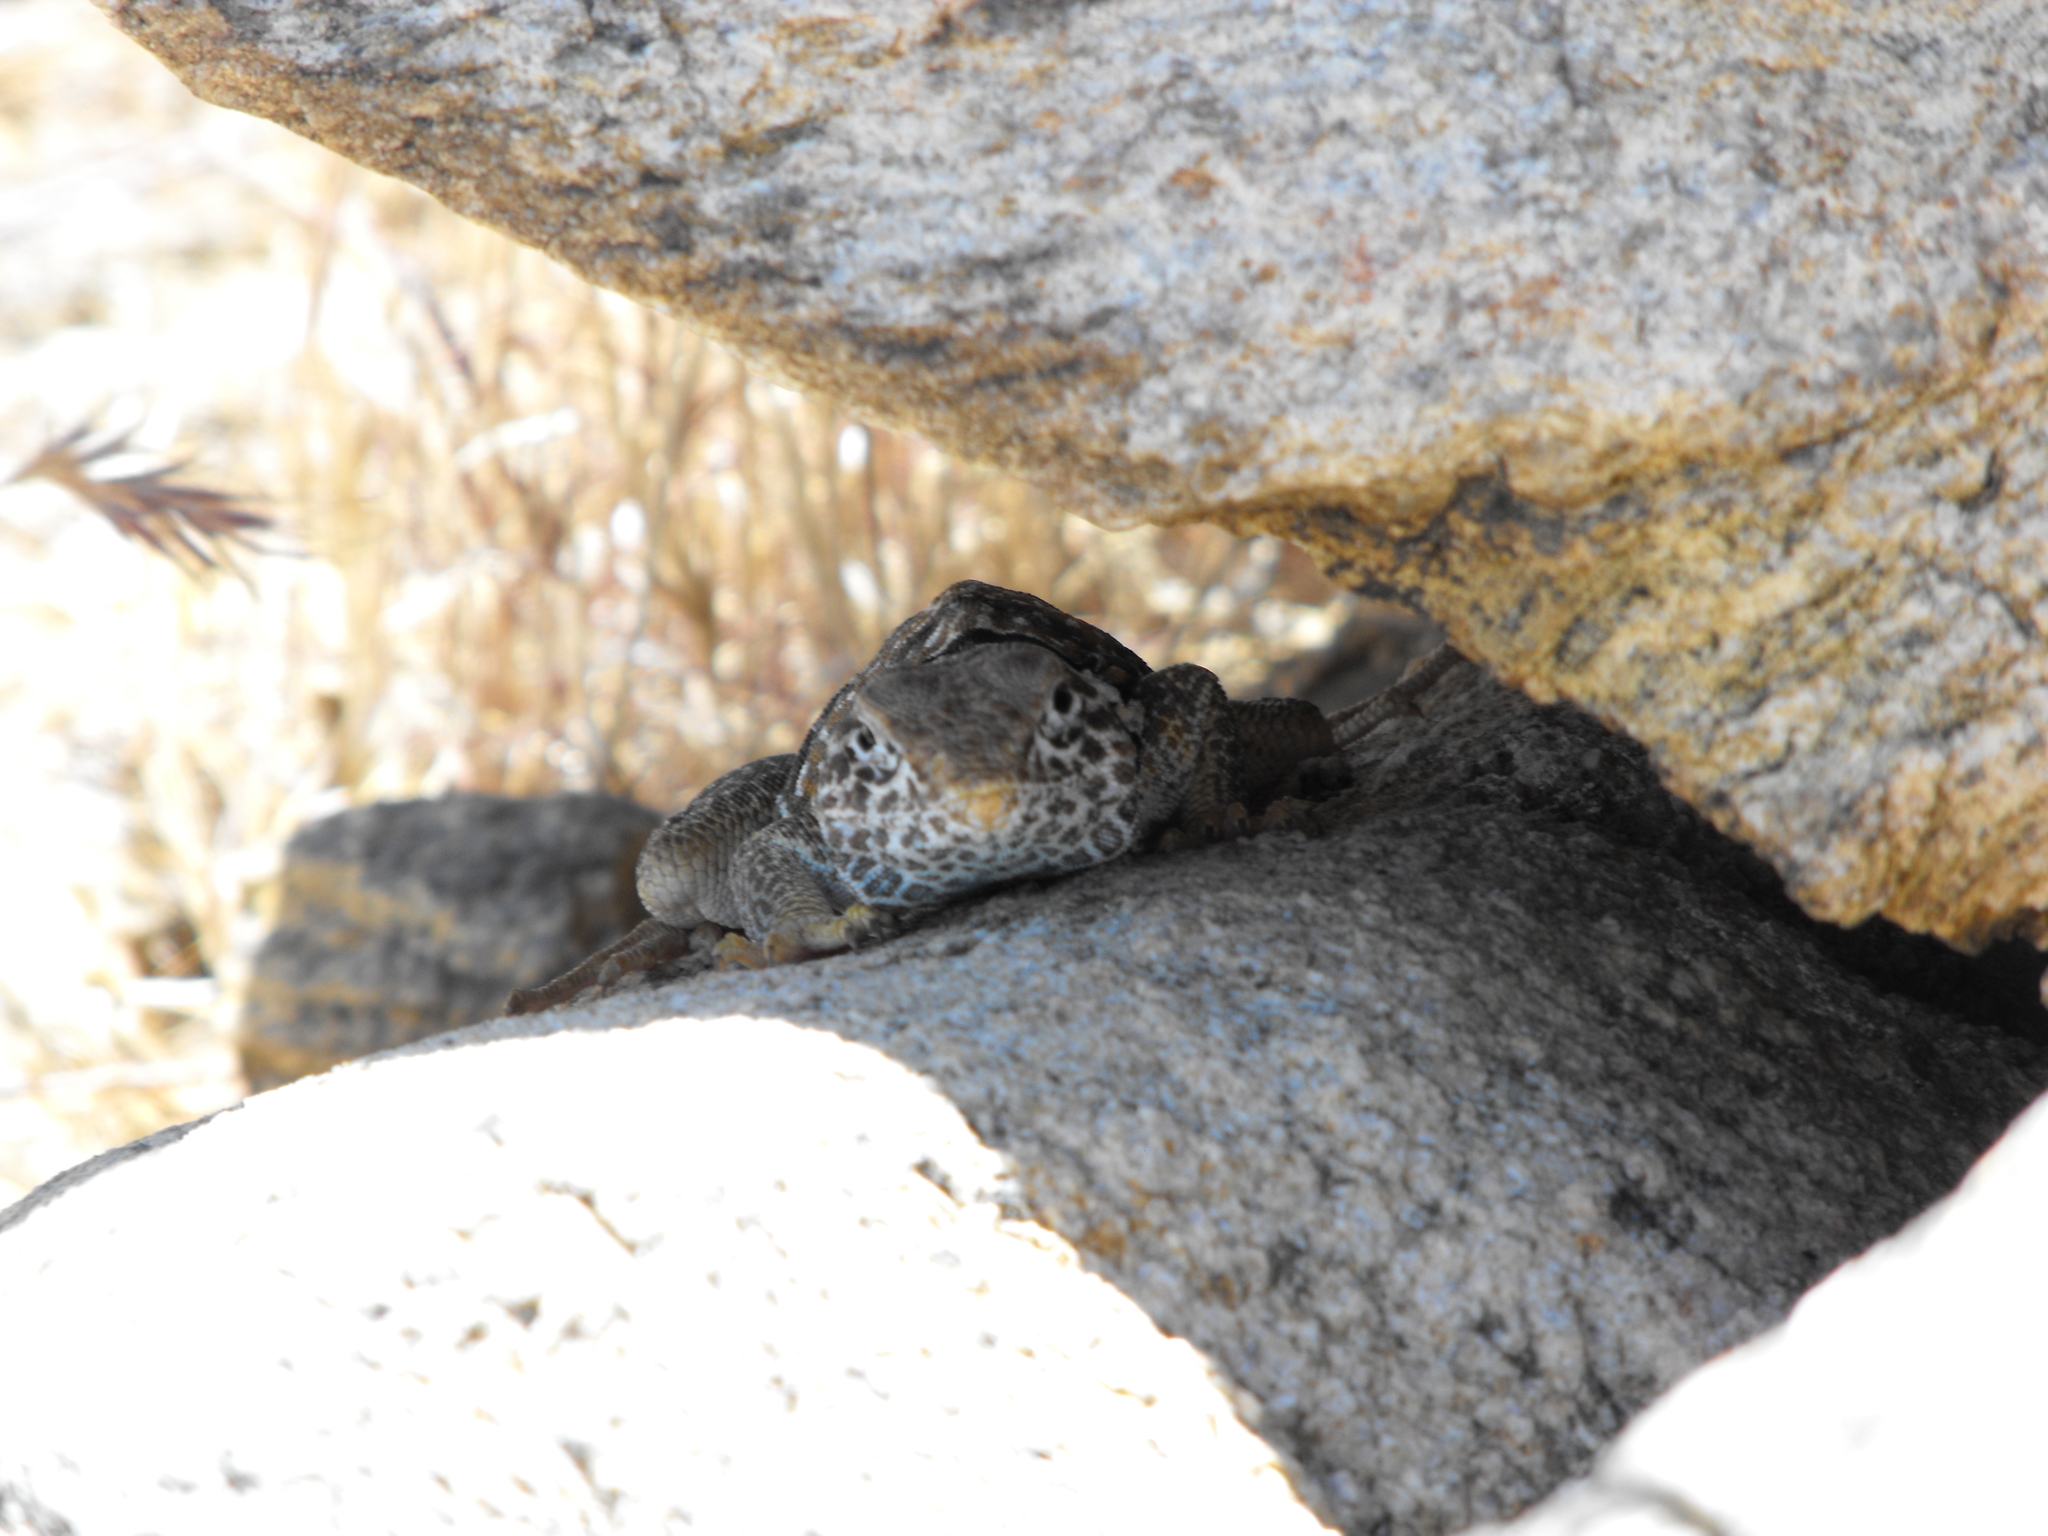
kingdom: Animalia
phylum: Chordata
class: Squamata
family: Crotaphytidae
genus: Crotaphytus
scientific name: Crotaphytus bicinctores
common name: Mojave black-collared lizard
